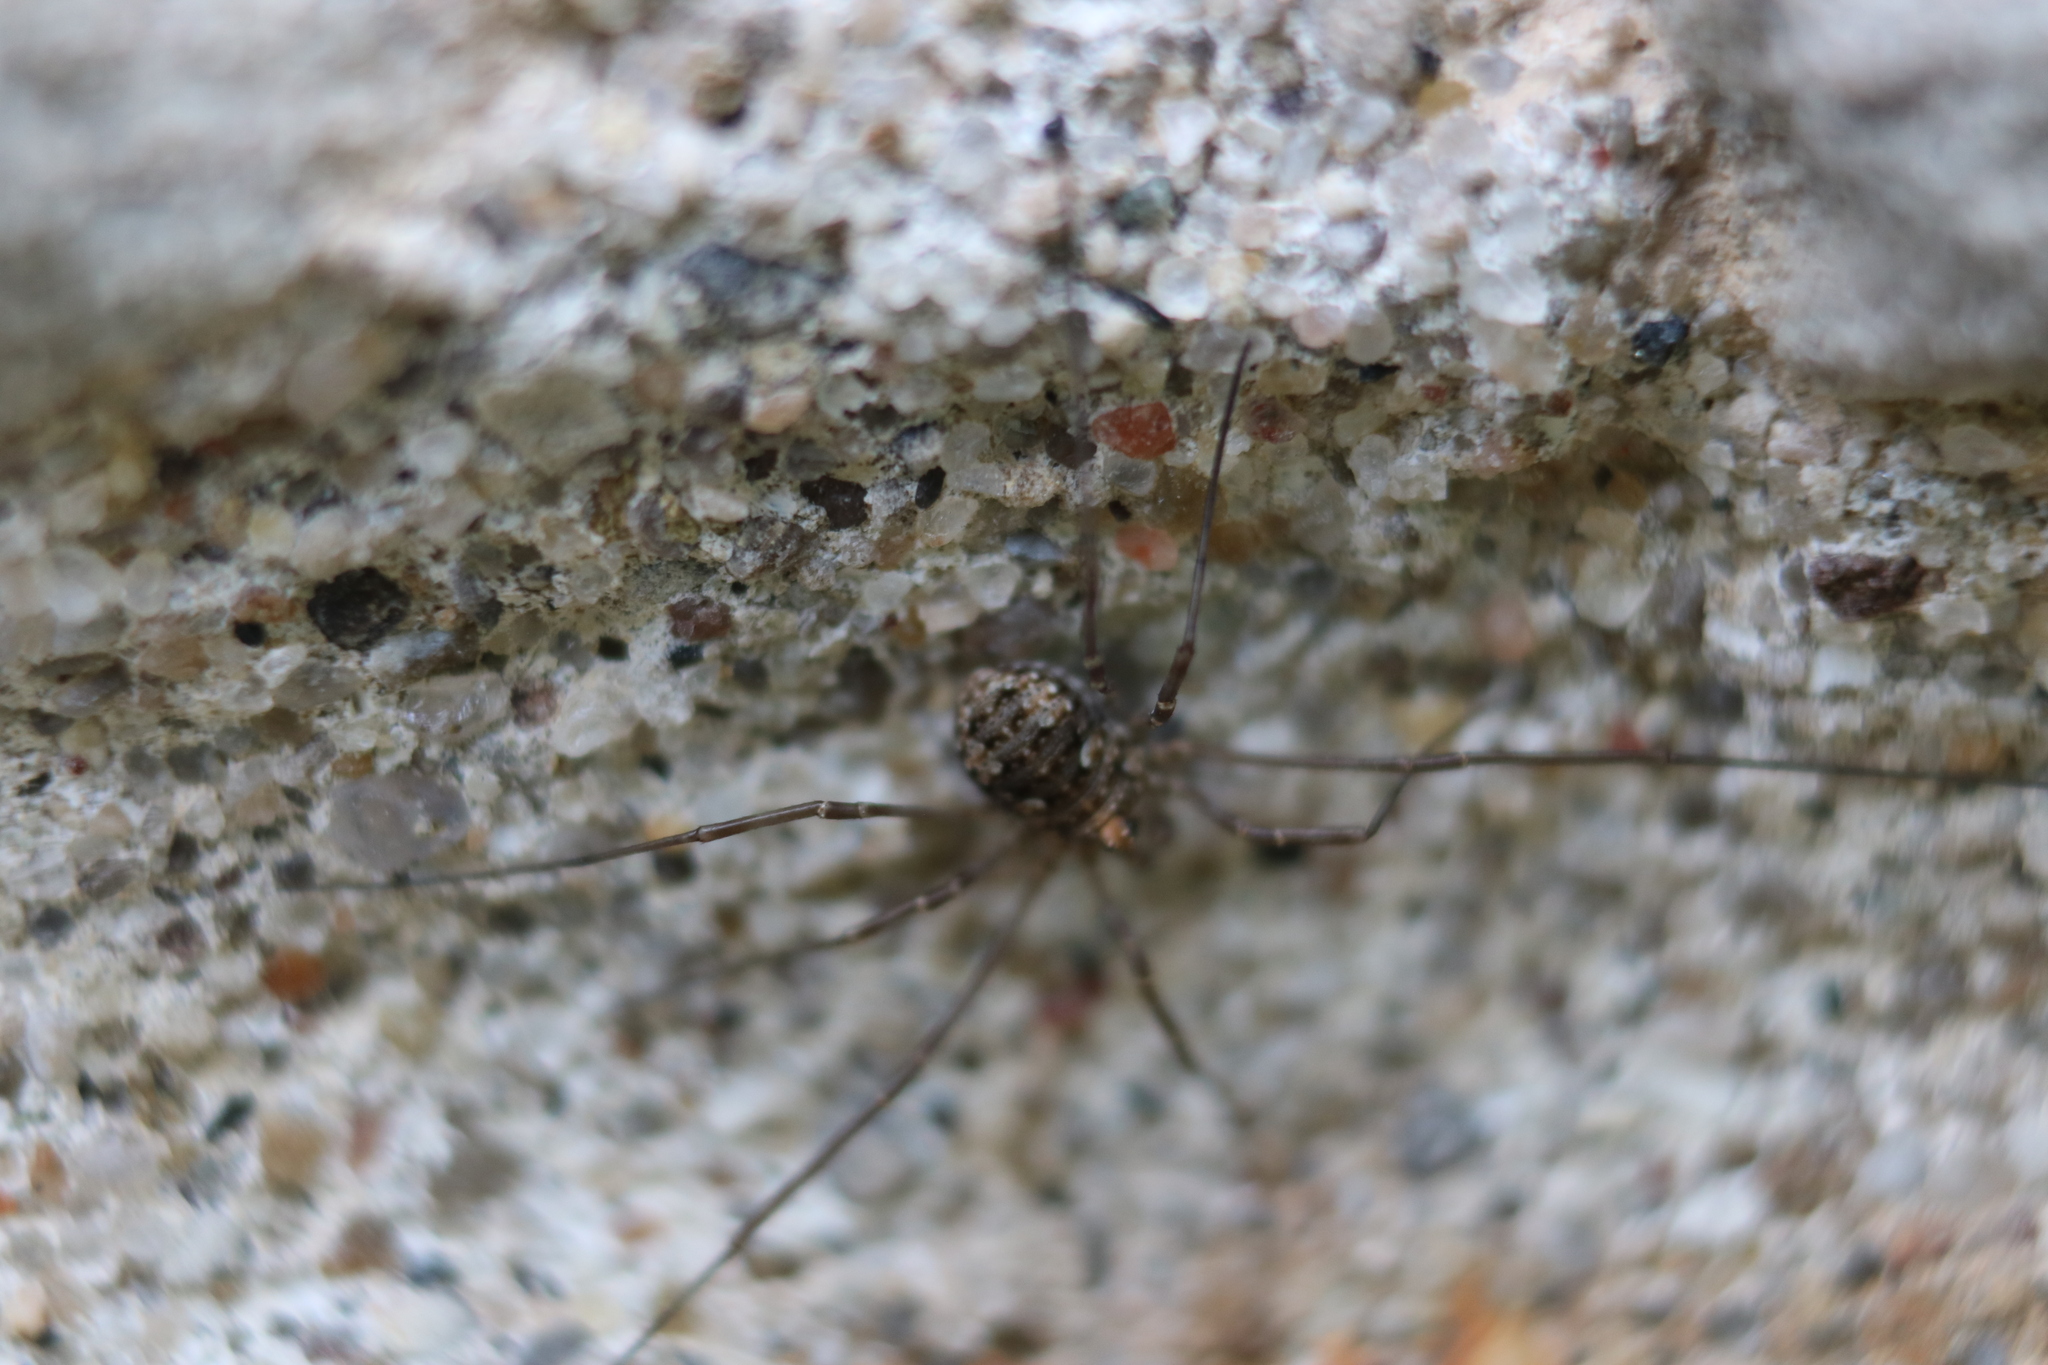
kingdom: Animalia
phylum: Arthropoda
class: Arachnida
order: Opiliones
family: Phalangiidae
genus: Phalangium
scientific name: Phalangium opilio
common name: Daddy longleg
